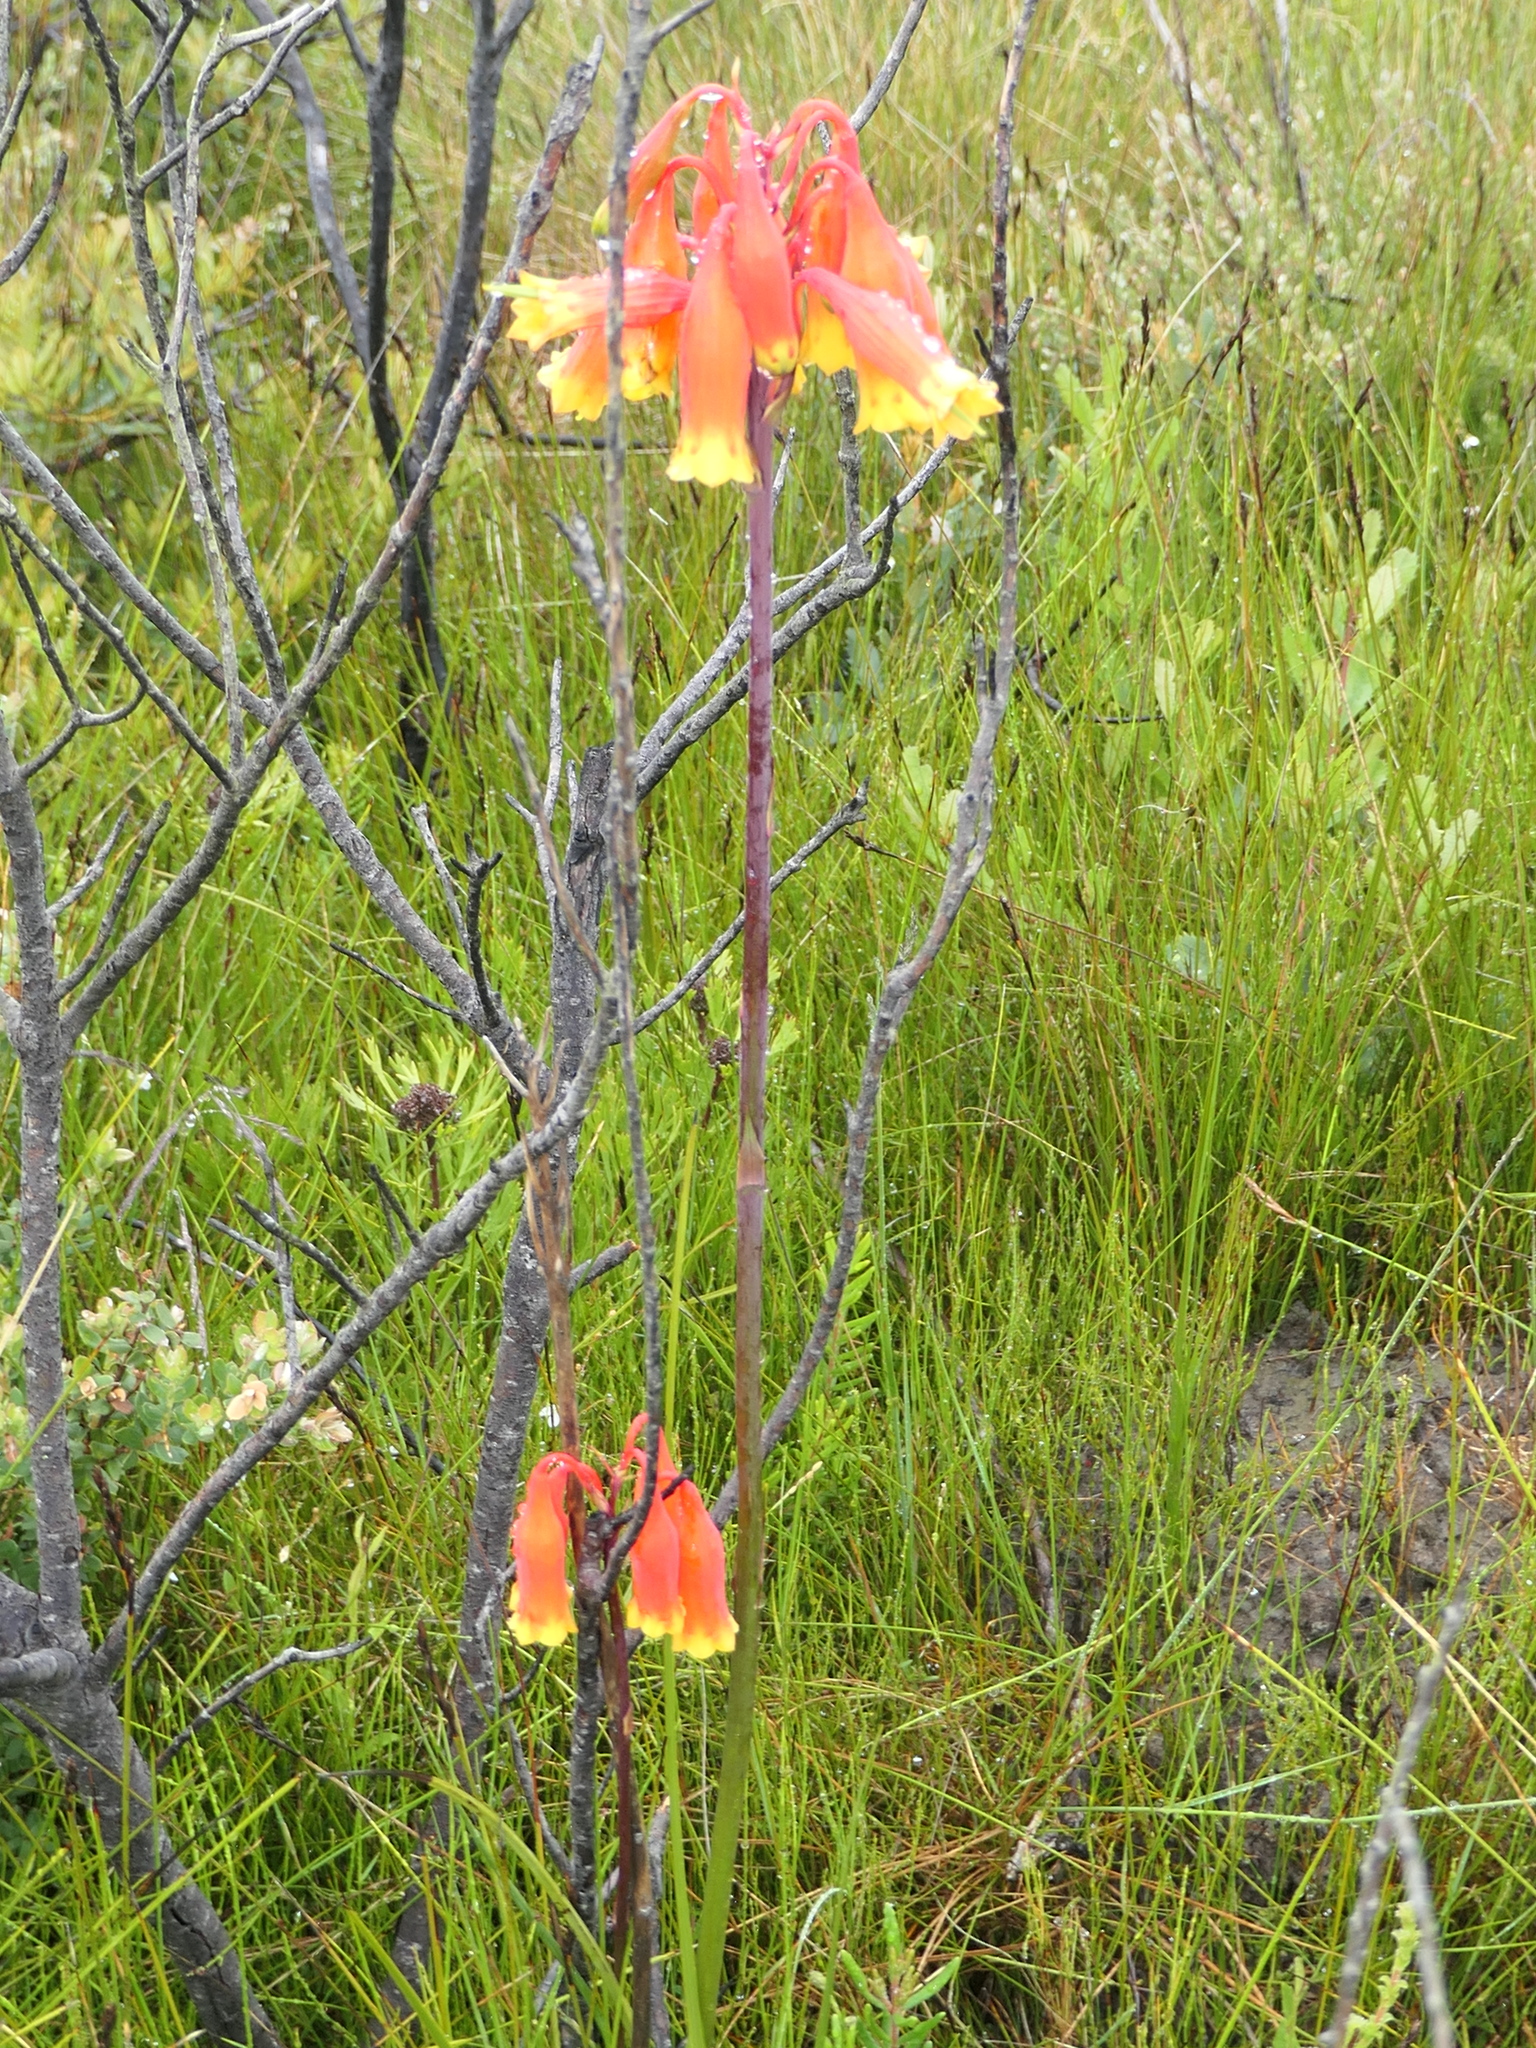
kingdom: Plantae
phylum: Tracheophyta
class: Liliopsida
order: Asparagales
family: Blandfordiaceae
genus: Blandfordia
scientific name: Blandfordia nobilis
